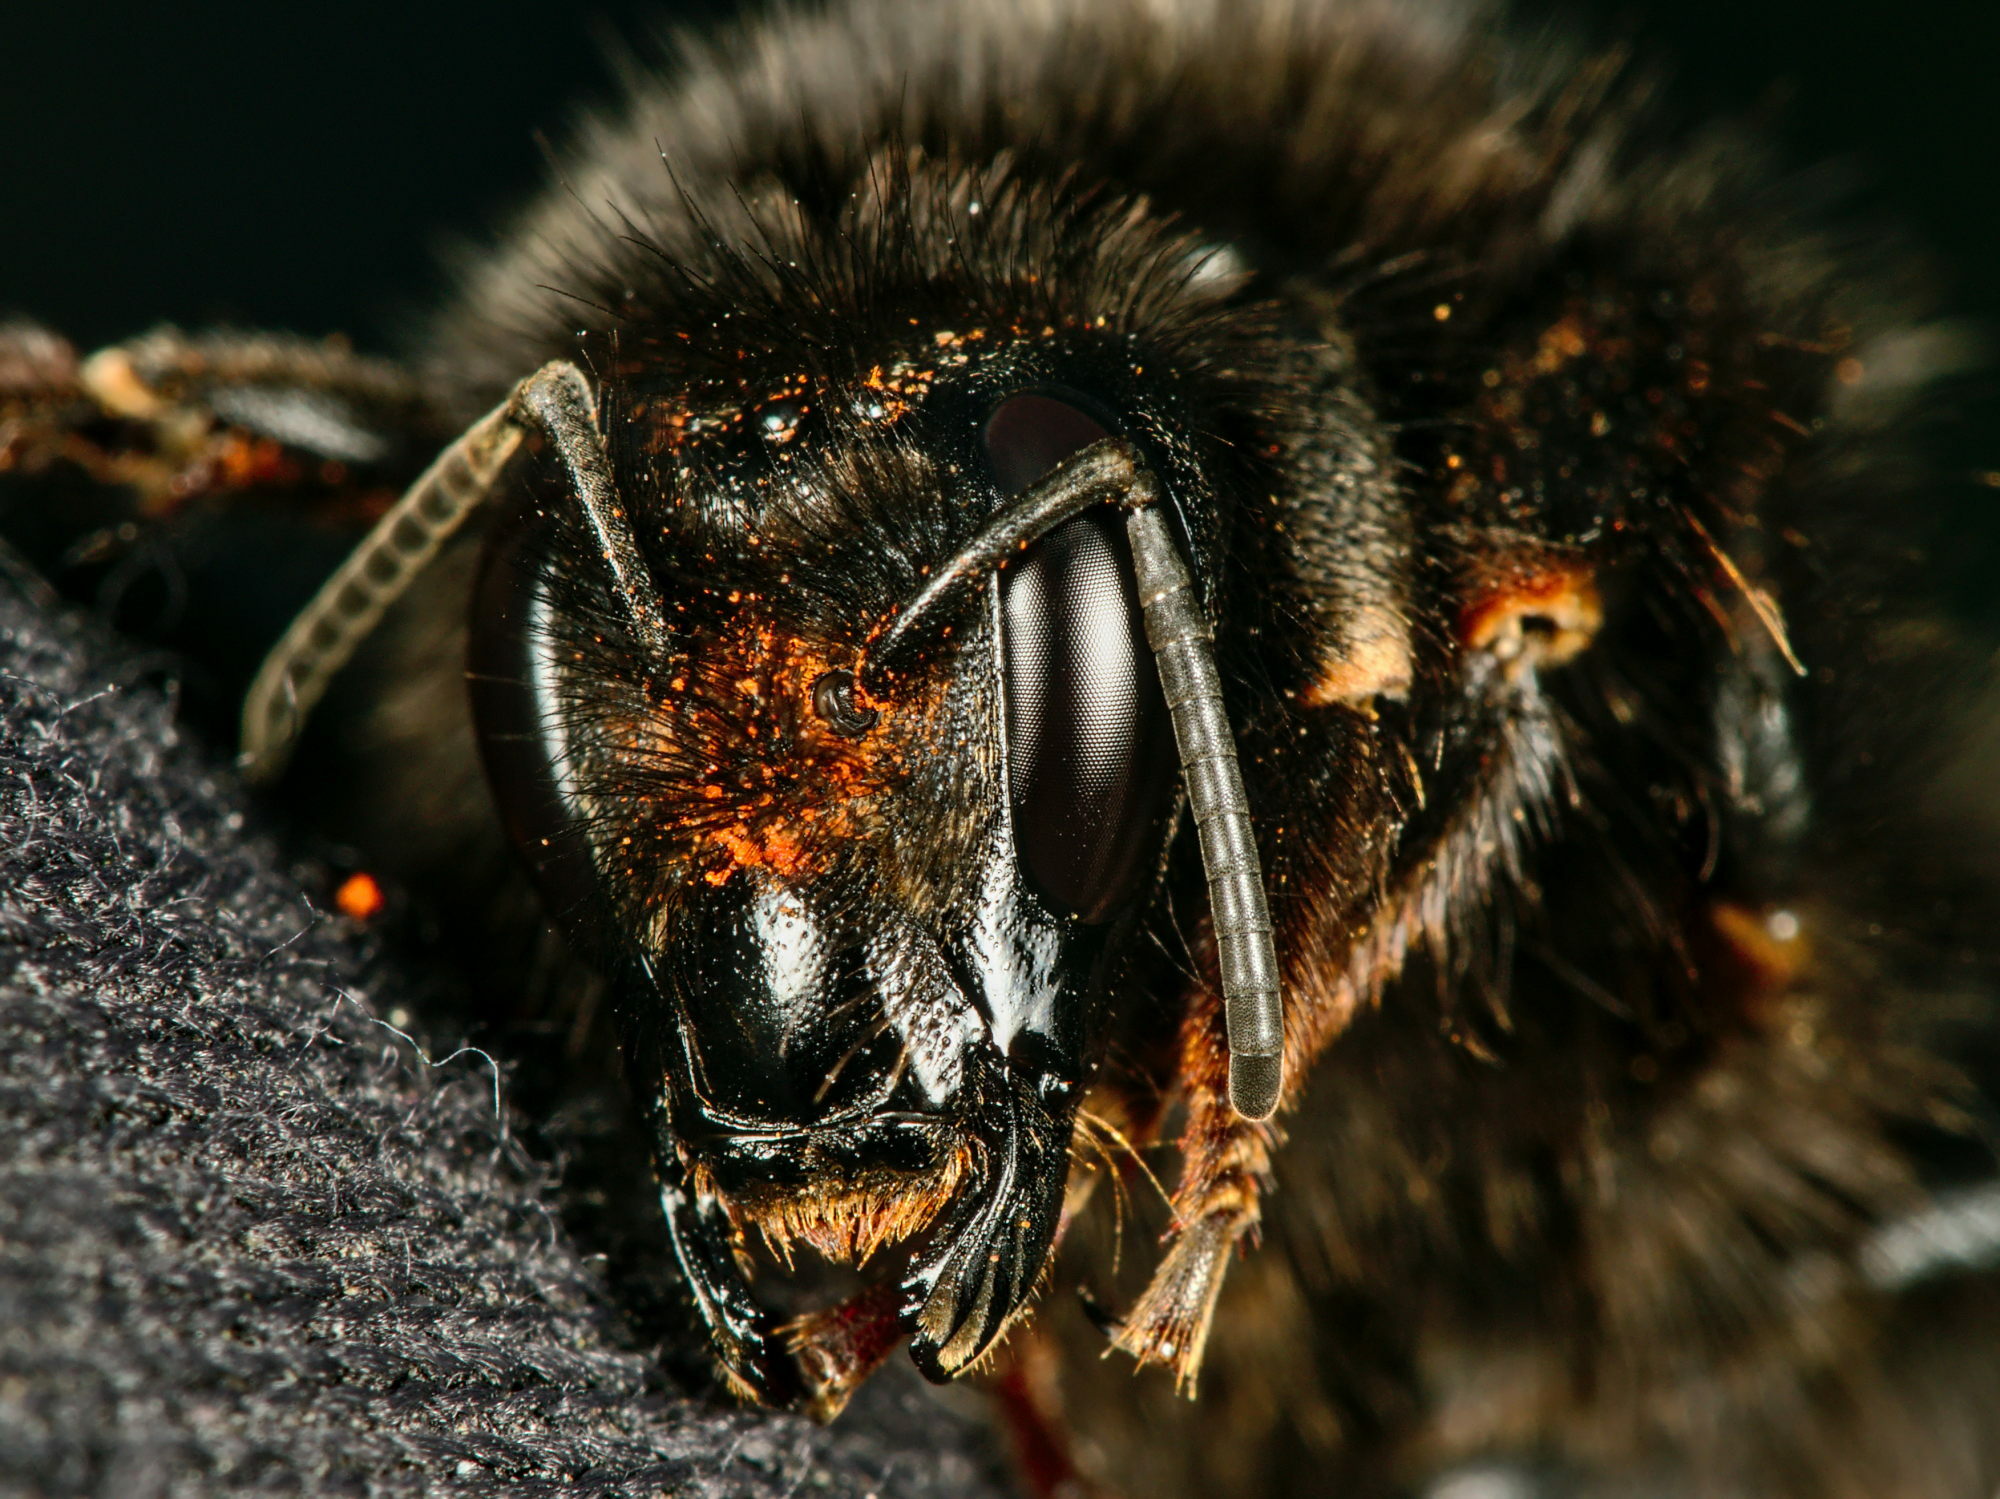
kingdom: Animalia
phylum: Arthropoda
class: Insecta
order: Hymenoptera
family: Apidae
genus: Bombus
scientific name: Bombus ruderarius
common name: Red-shanked carder-bee
